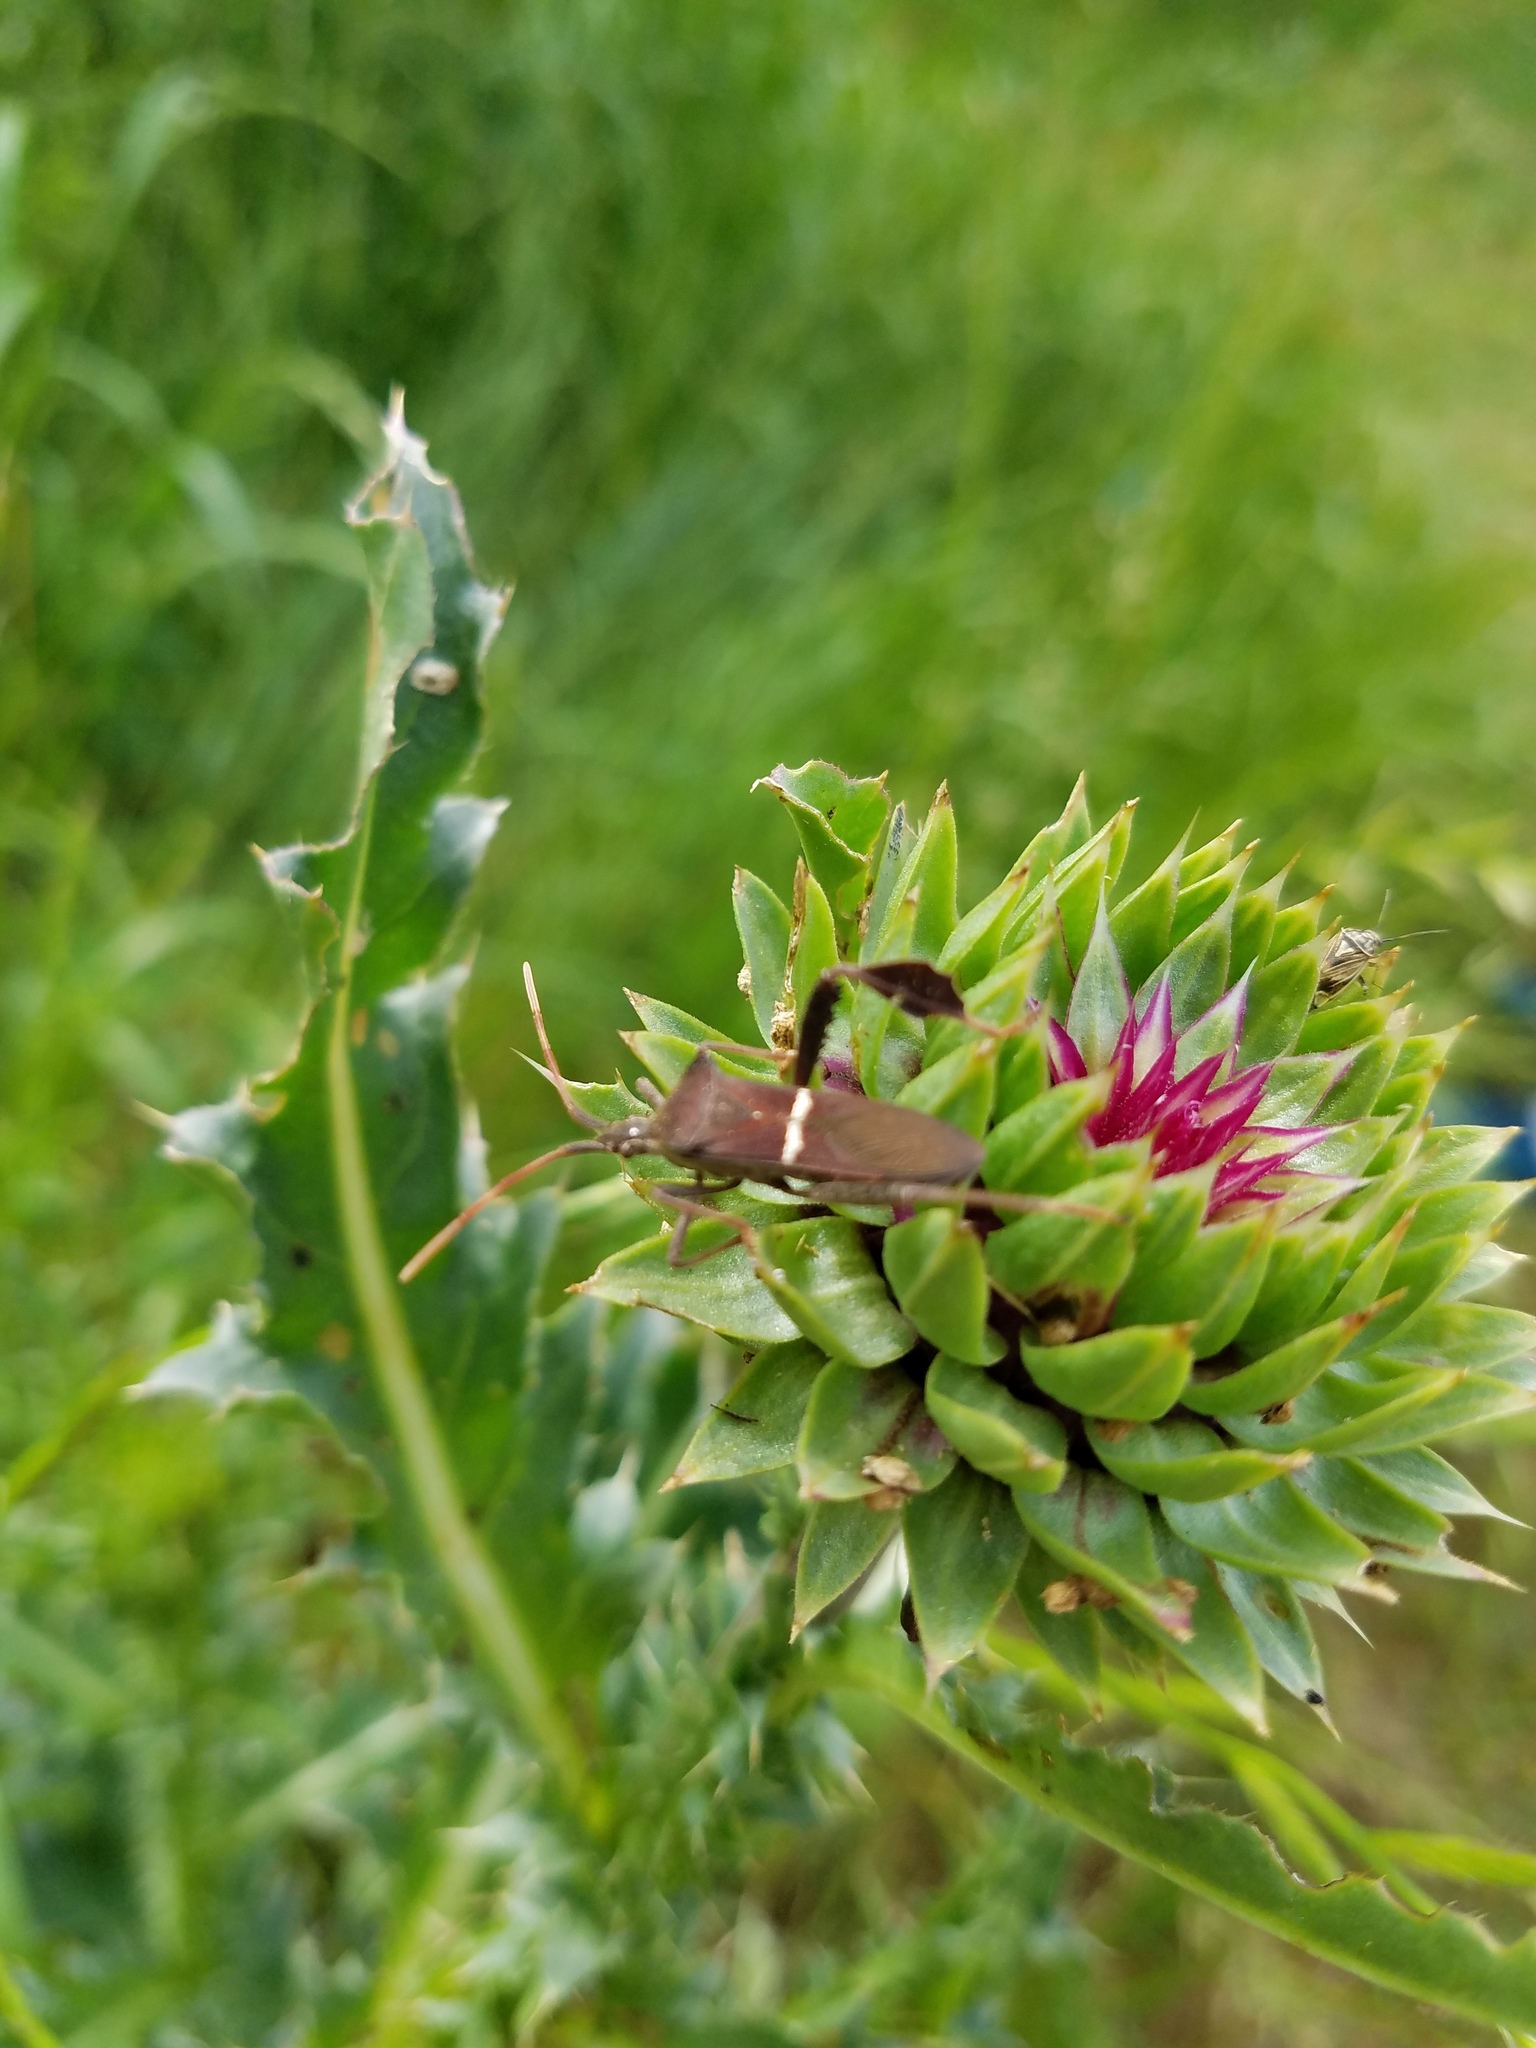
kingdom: Plantae
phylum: Tracheophyta
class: Magnoliopsida
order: Asterales
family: Asteraceae
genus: Carduus
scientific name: Carduus nutans
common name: Musk thistle
